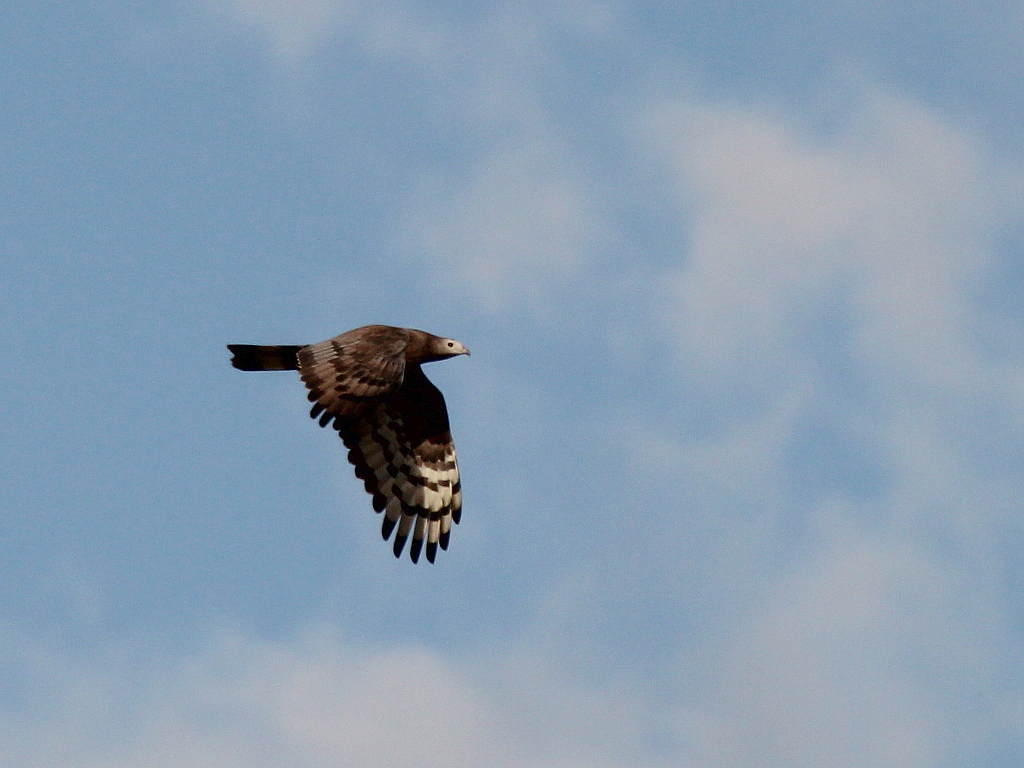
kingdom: Animalia
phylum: Chordata
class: Aves
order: Accipitriformes
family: Accipitridae
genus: Pernis
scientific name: Pernis ptilorhynchus
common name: Crested honey buzzard
